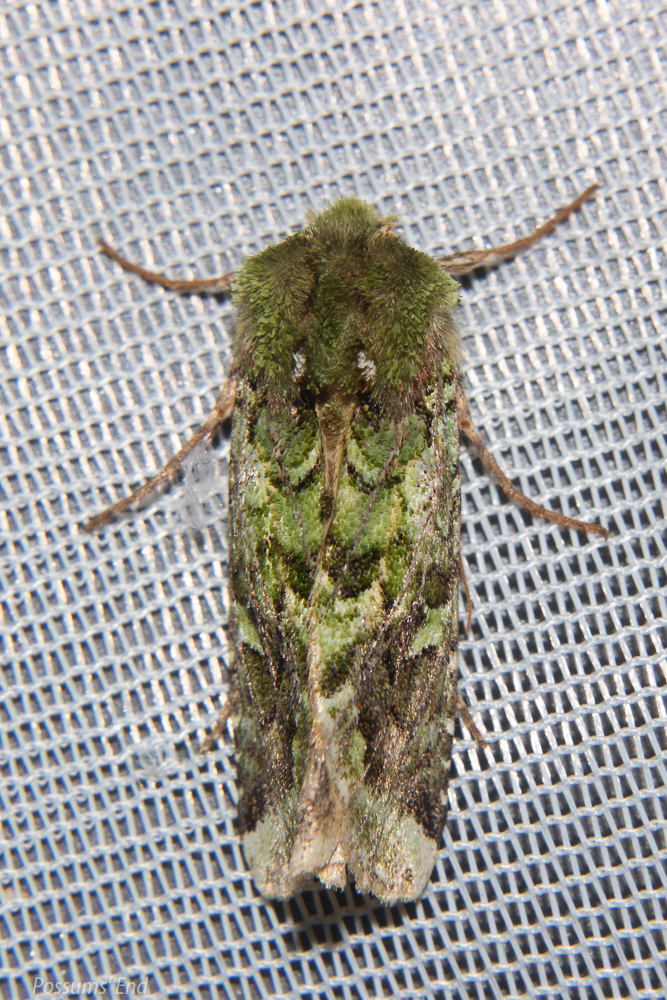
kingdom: Animalia
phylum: Arthropoda
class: Insecta
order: Lepidoptera
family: Noctuidae
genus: Feredayia
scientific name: Feredayia grammosa
